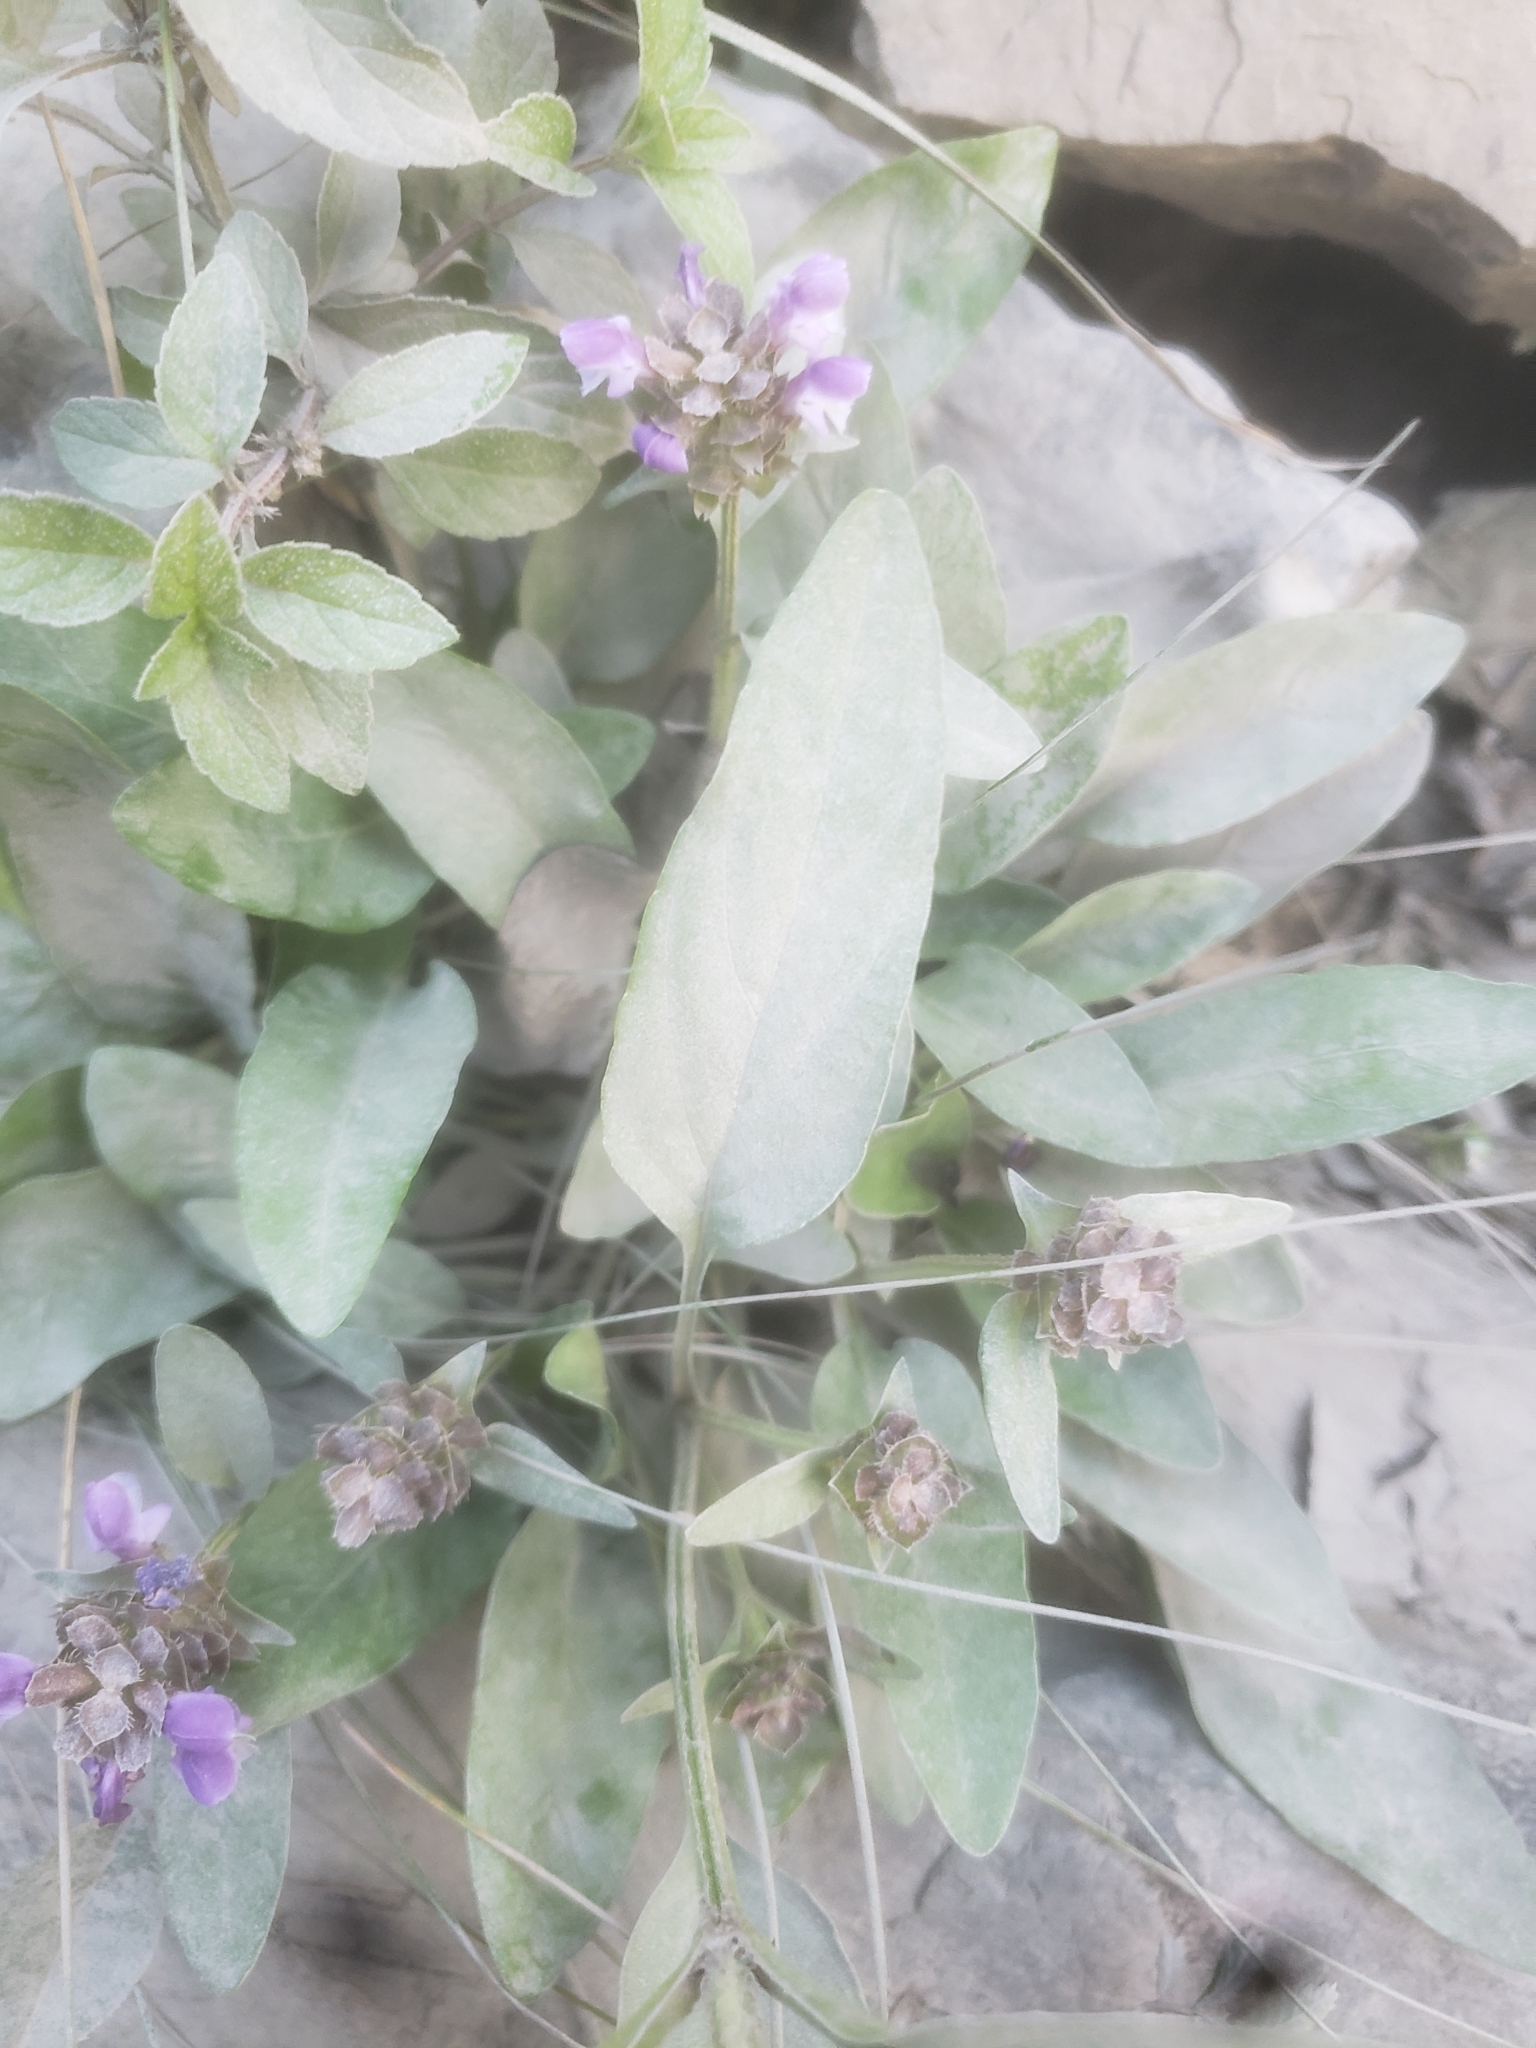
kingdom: Plantae
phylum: Tracheophyta
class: Magnoliopsida
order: Lamiales
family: Lamiaceae
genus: Prunella
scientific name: Prunella vulgaris
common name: Heal-all
